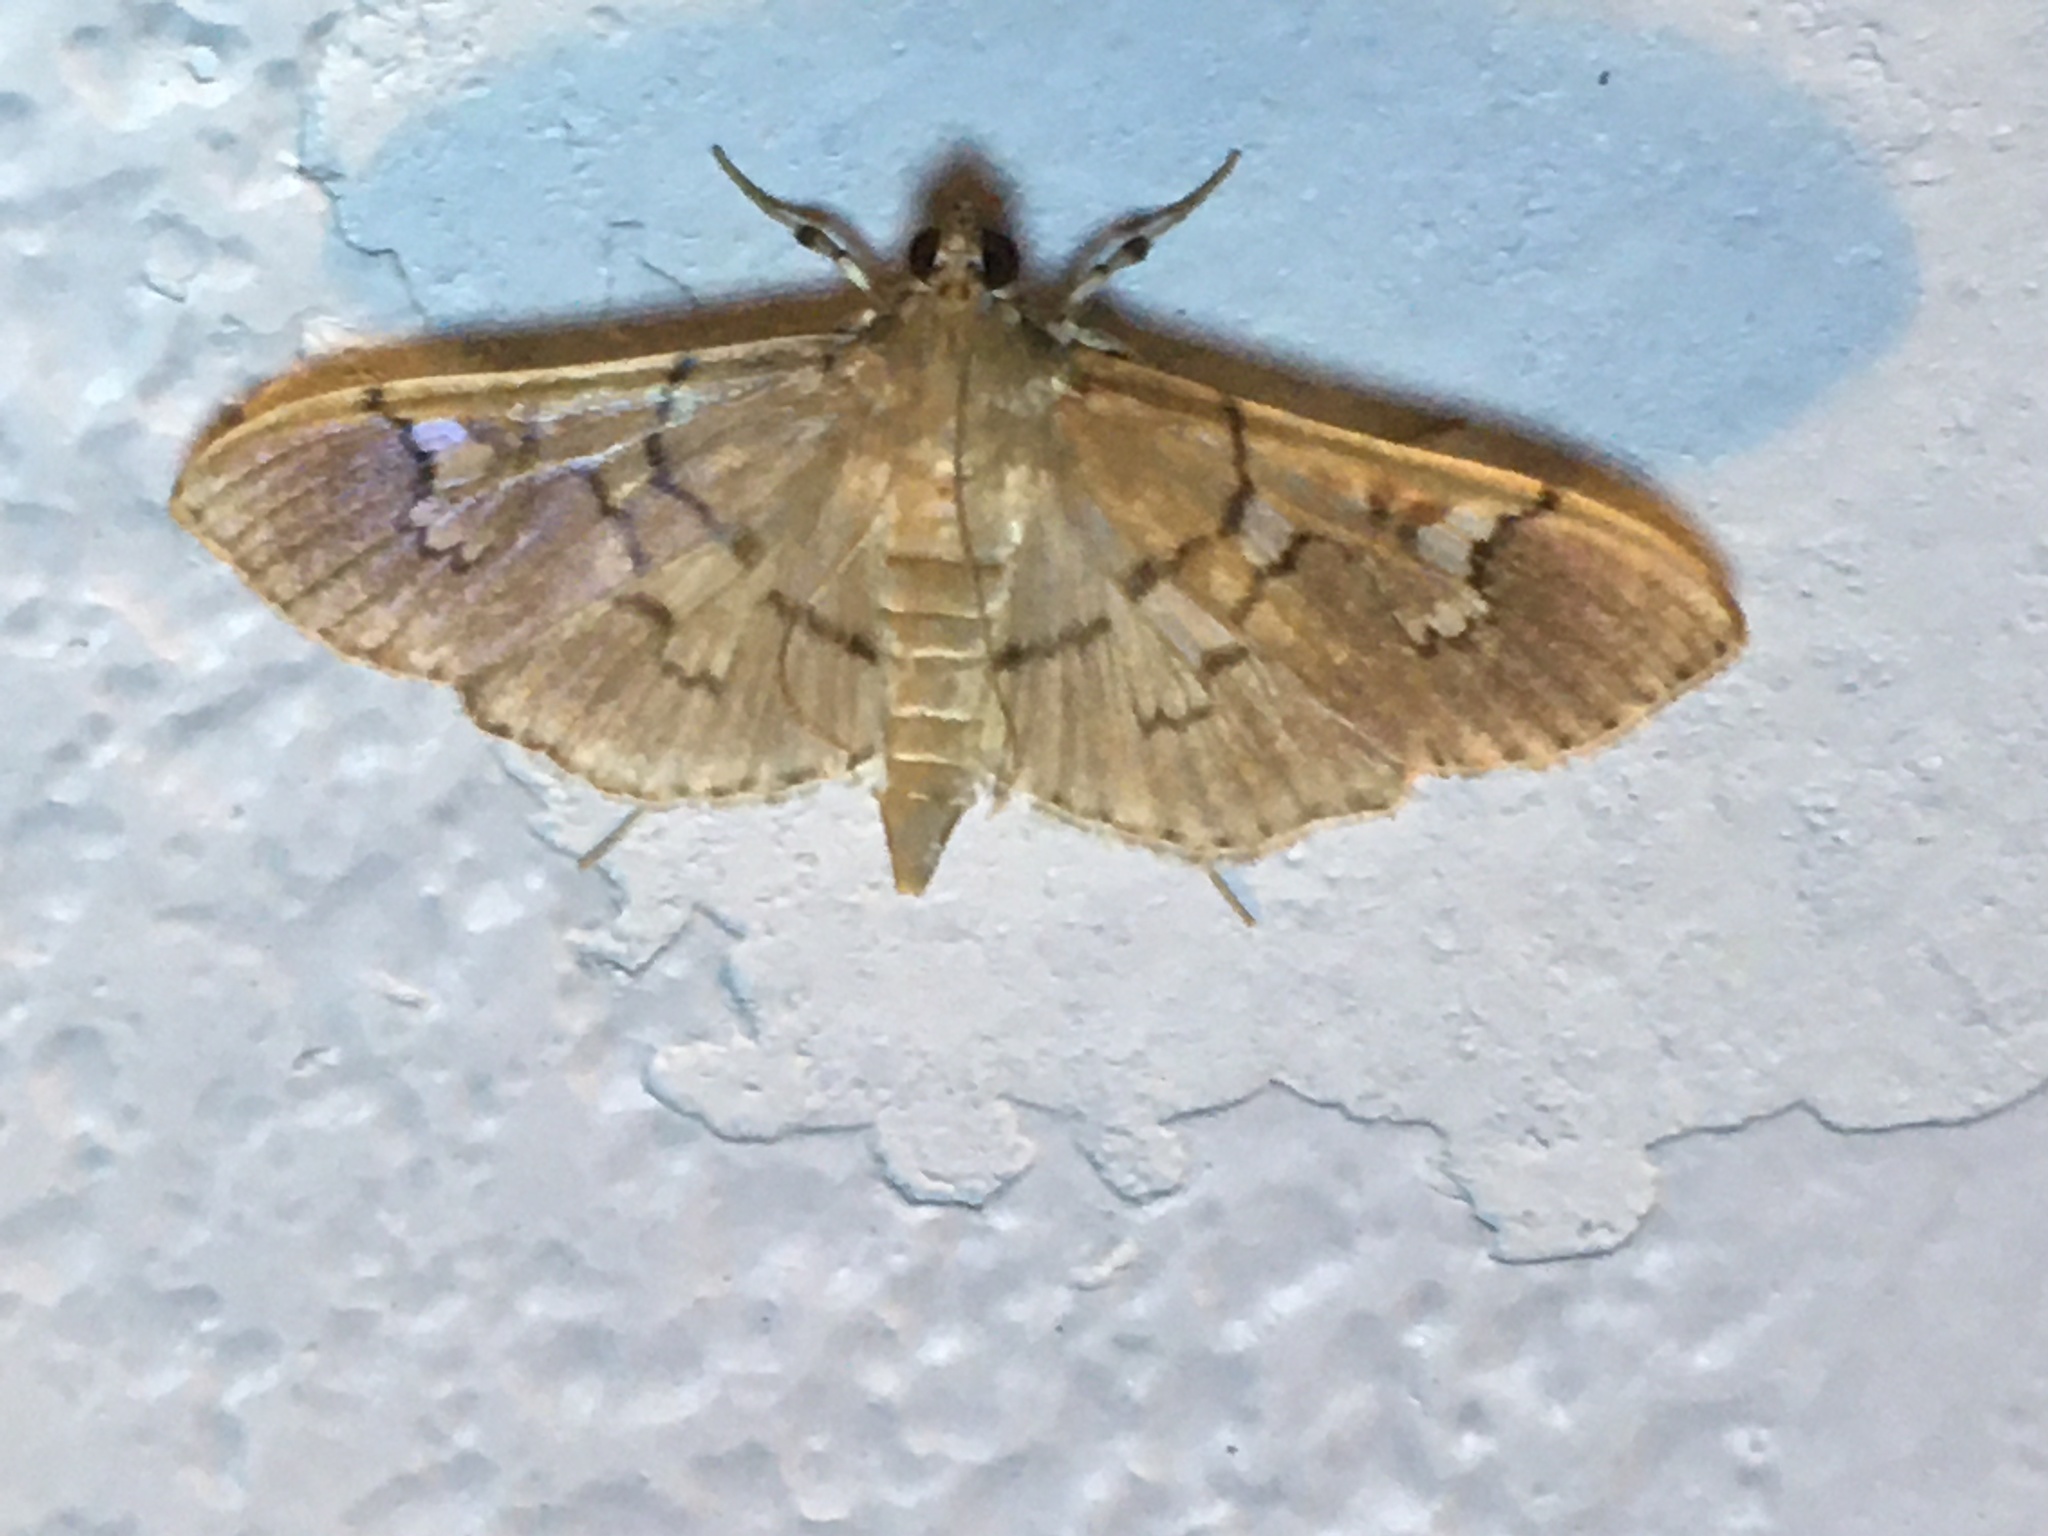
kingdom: Animalia
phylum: Arthropoda
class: Insecta
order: Lepidoptera
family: Crambidae
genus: Microthyris
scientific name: Microthyris prolongalis
